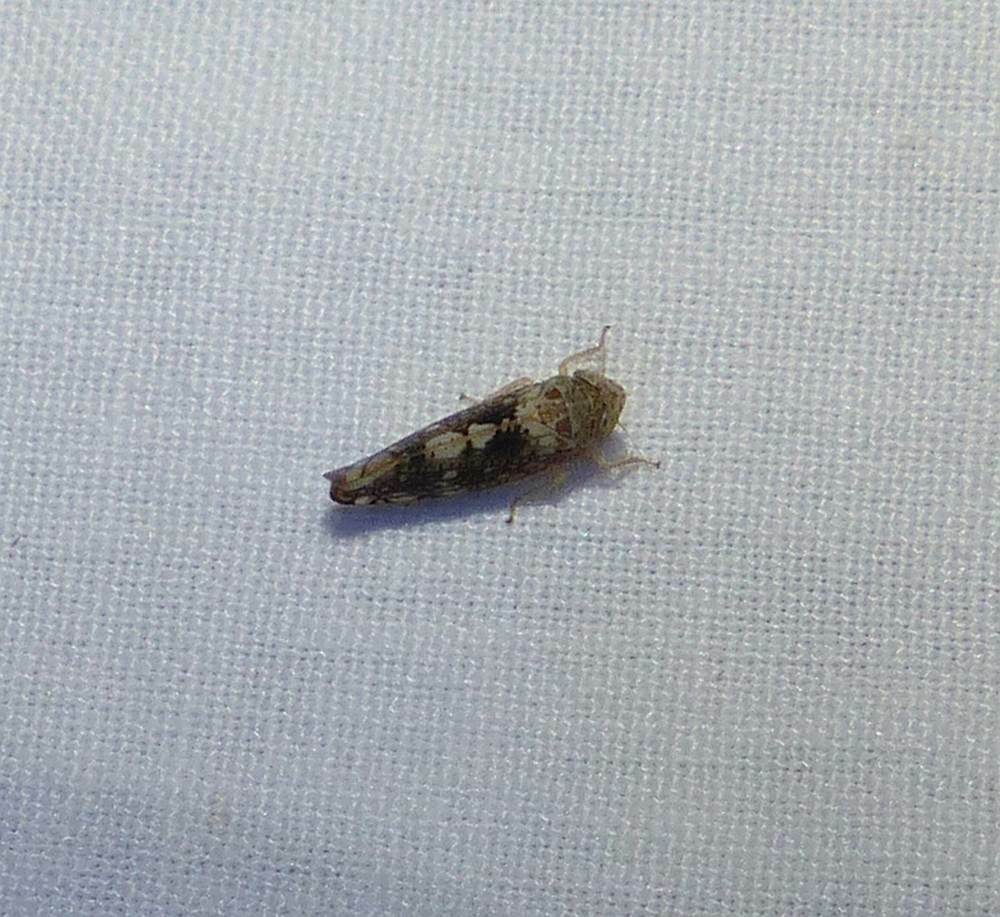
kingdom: Animalia
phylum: Arthropoda
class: Insecta
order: Hemiptera
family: Cicadellidae
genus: Prescottia
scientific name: Prescottia lobata
